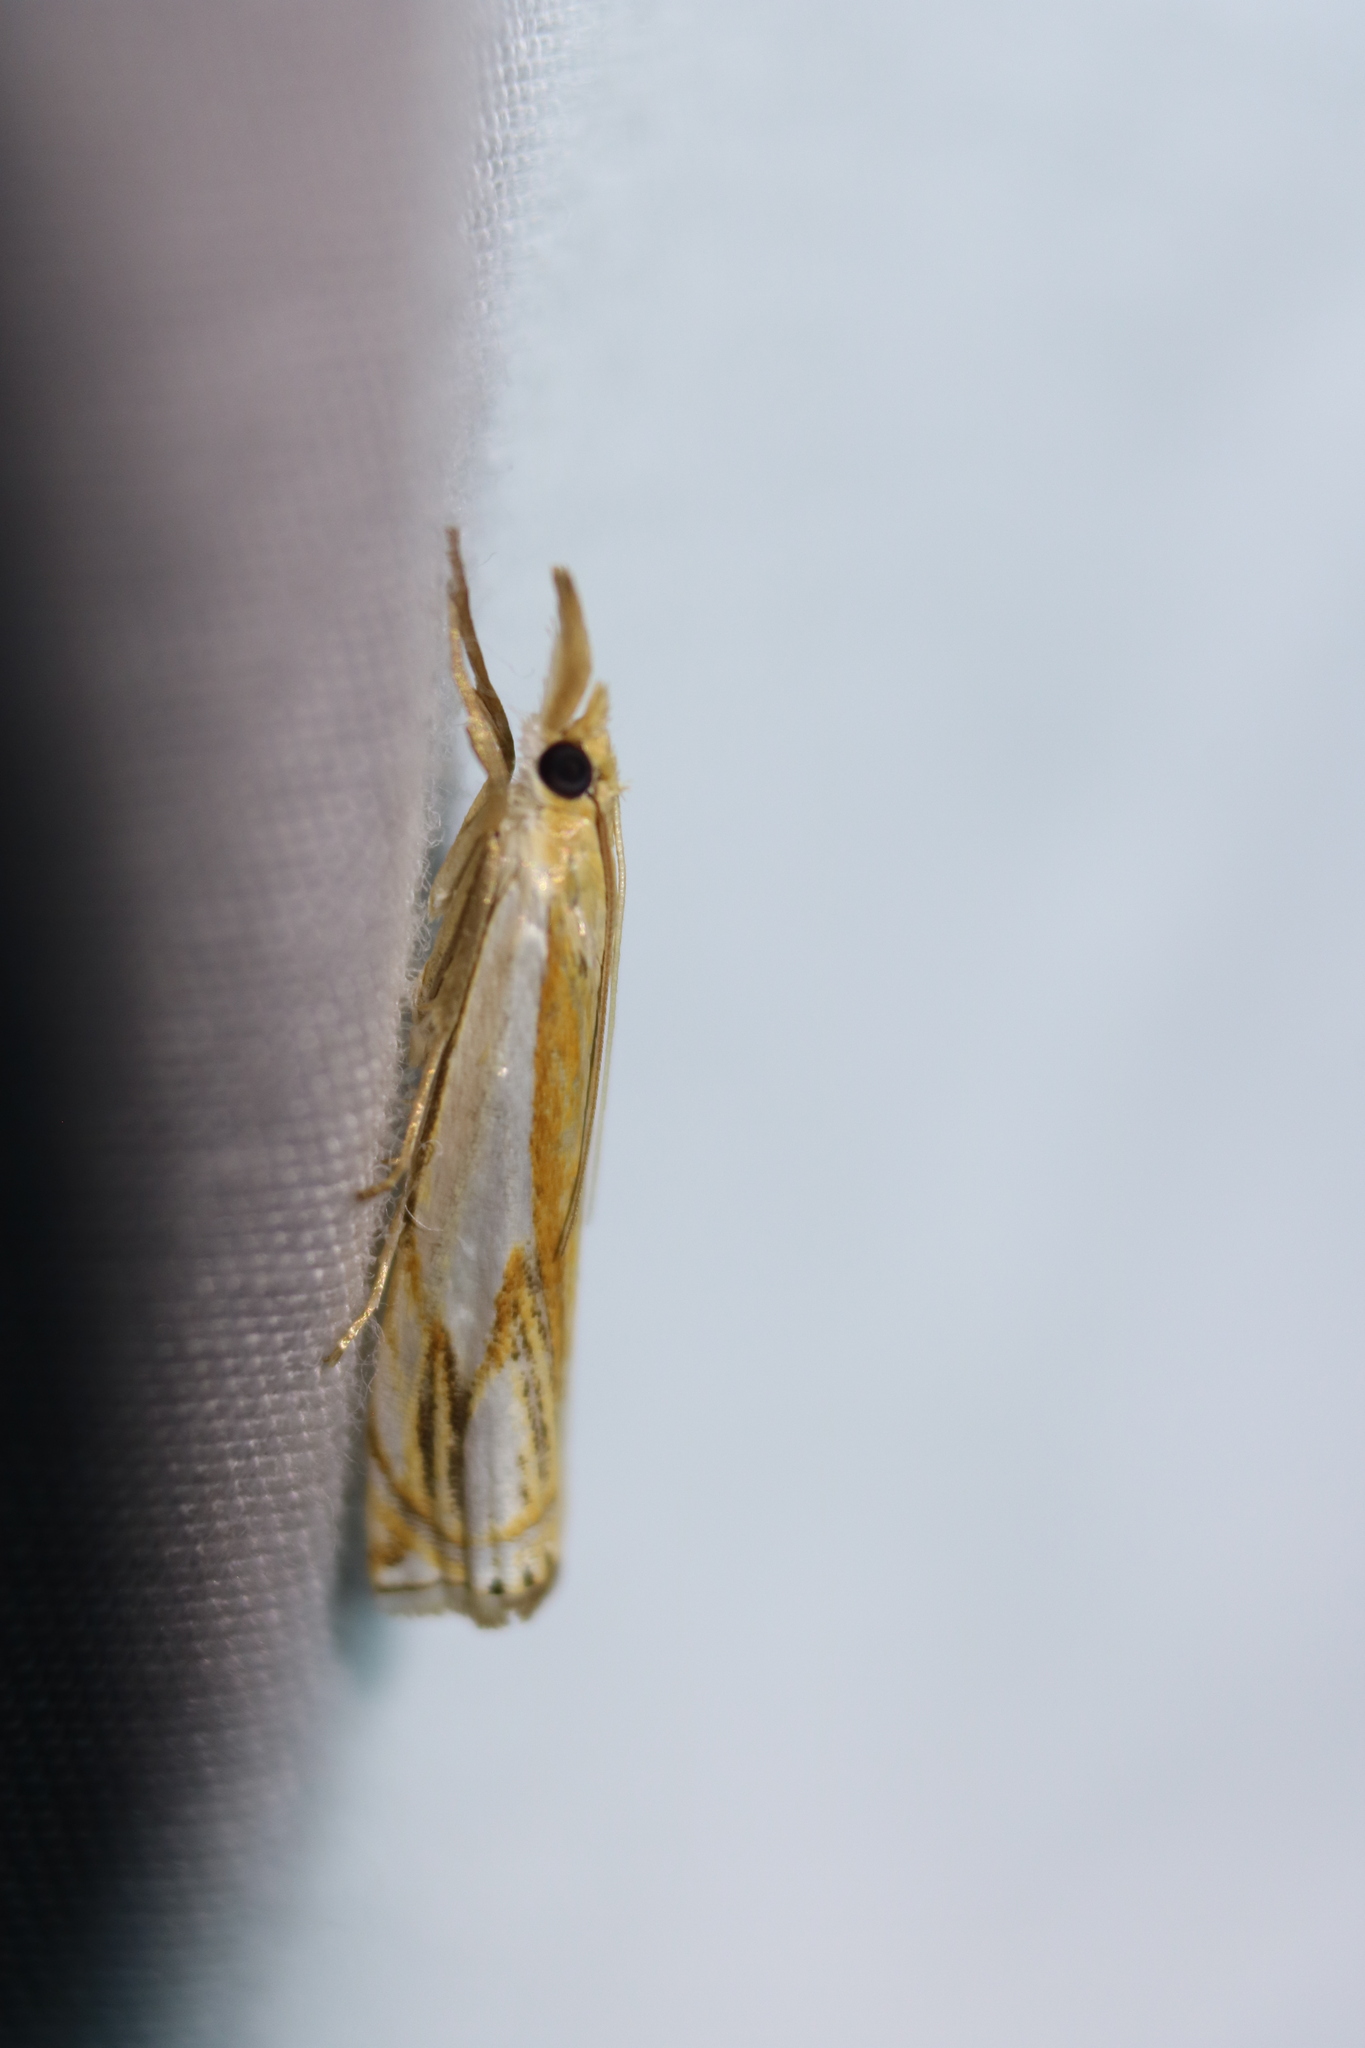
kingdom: Animalia
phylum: Arthropoda
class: Insecta
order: Lepidoptera
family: Crambidae
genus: Crambus
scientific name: Crambus agitatellus
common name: Double-banded grass-veneer
